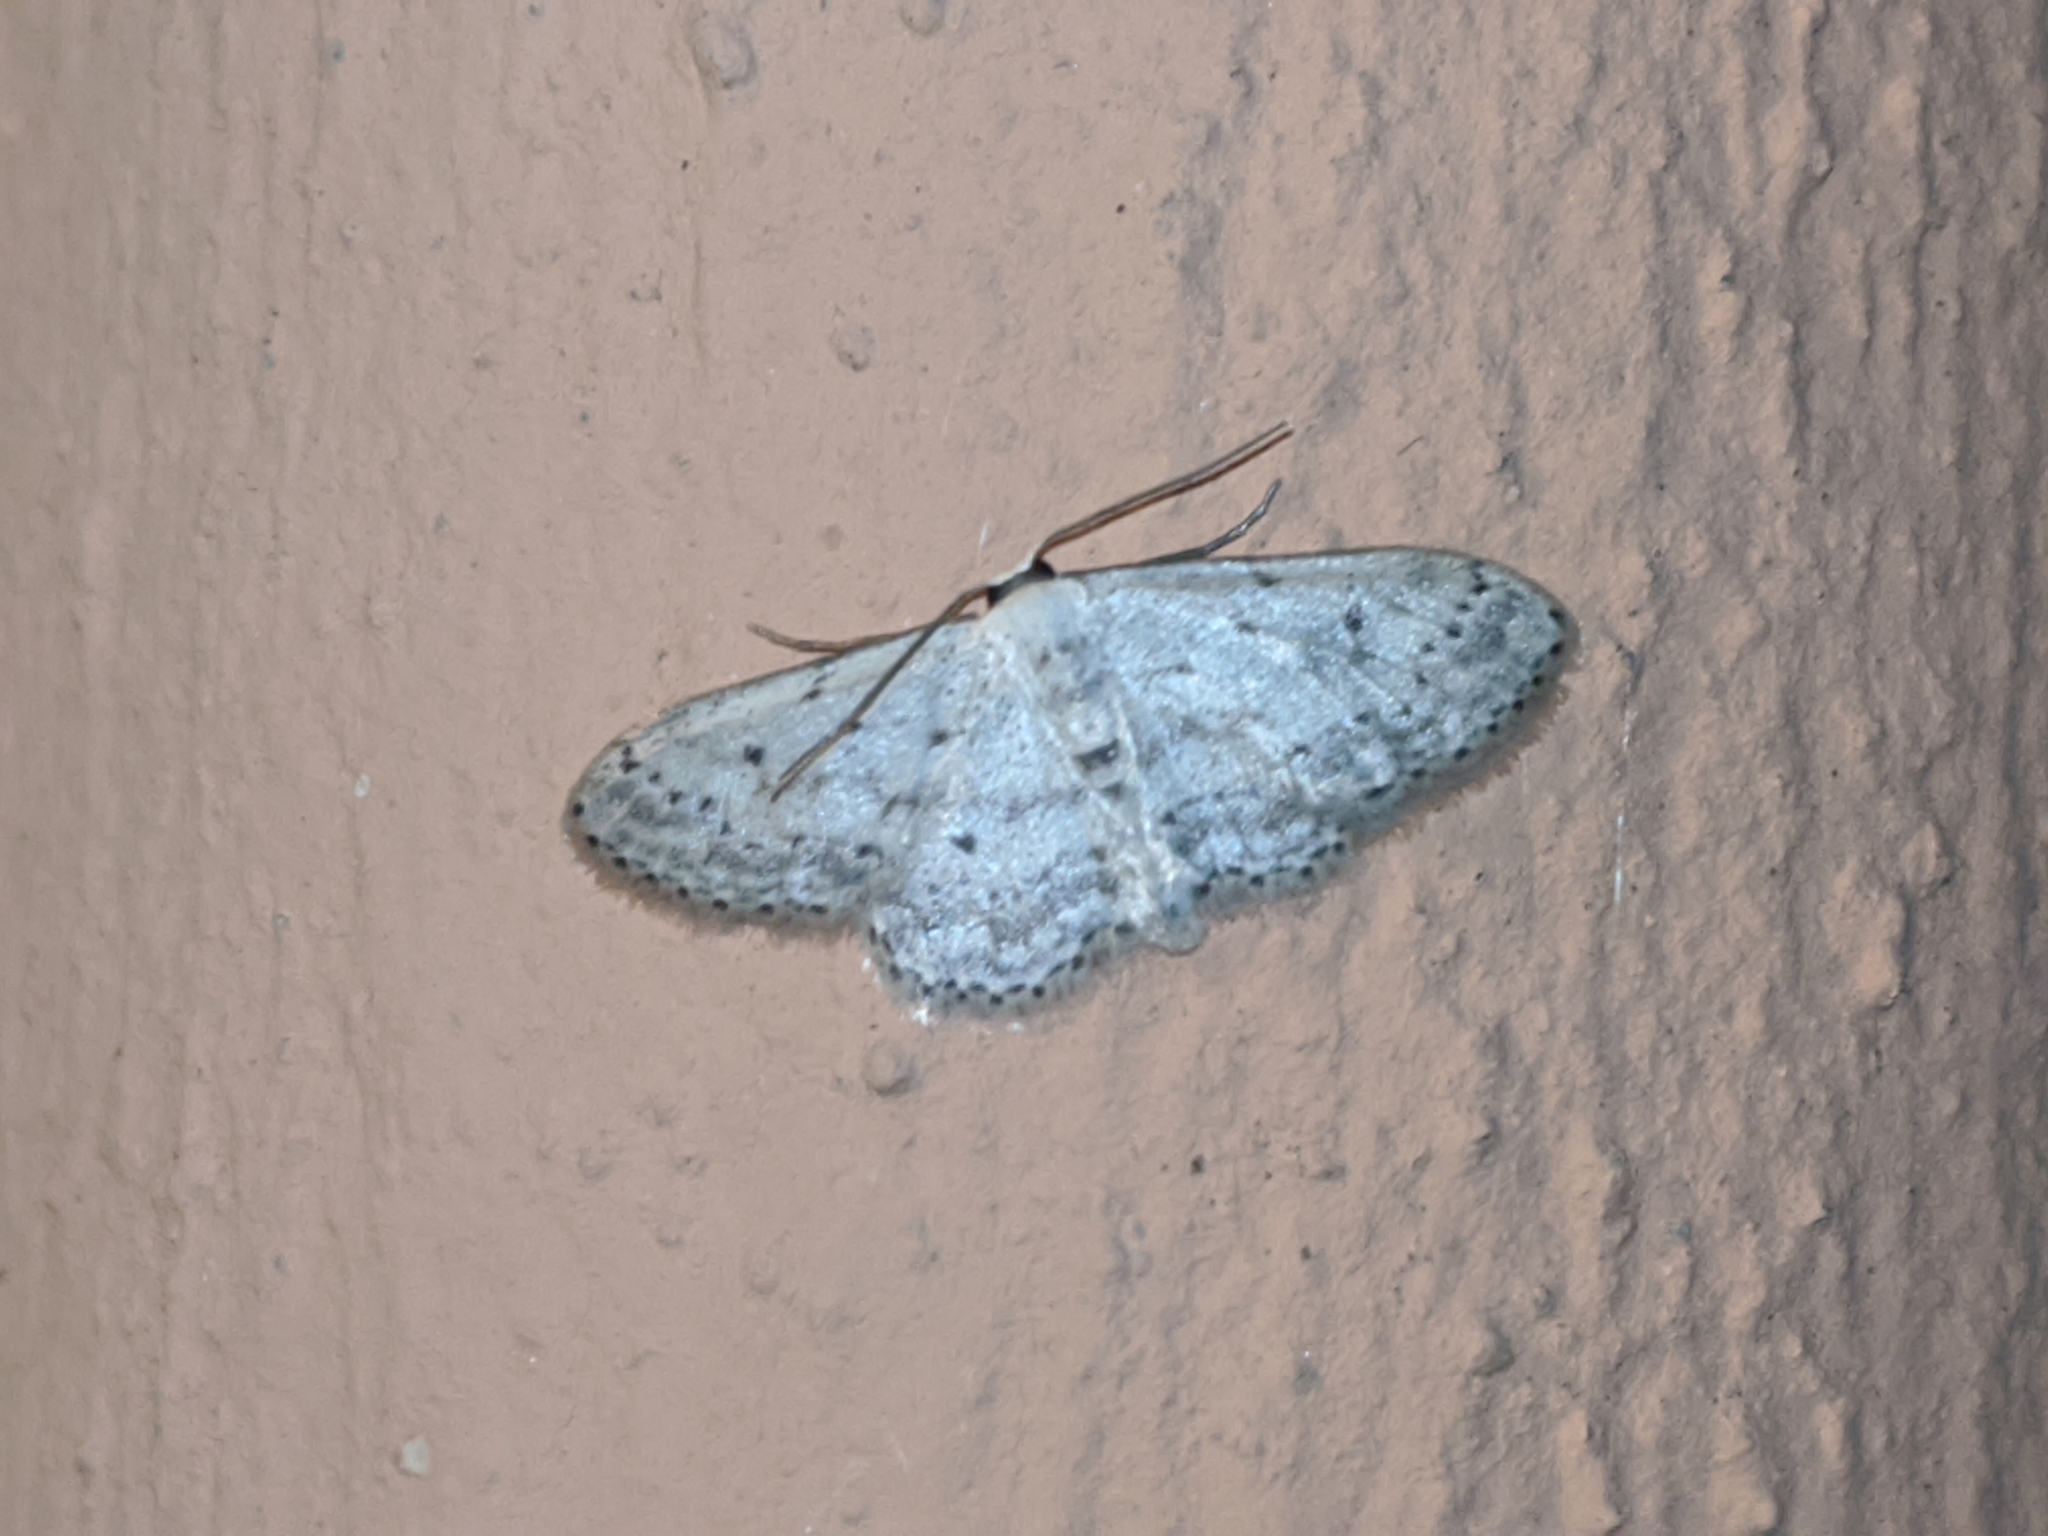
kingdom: Animalia
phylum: Arthropoda
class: Insecta
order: Lepidoptera
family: Geometridae
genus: Idaea
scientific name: Idaea seriata
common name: Small dusty wave
